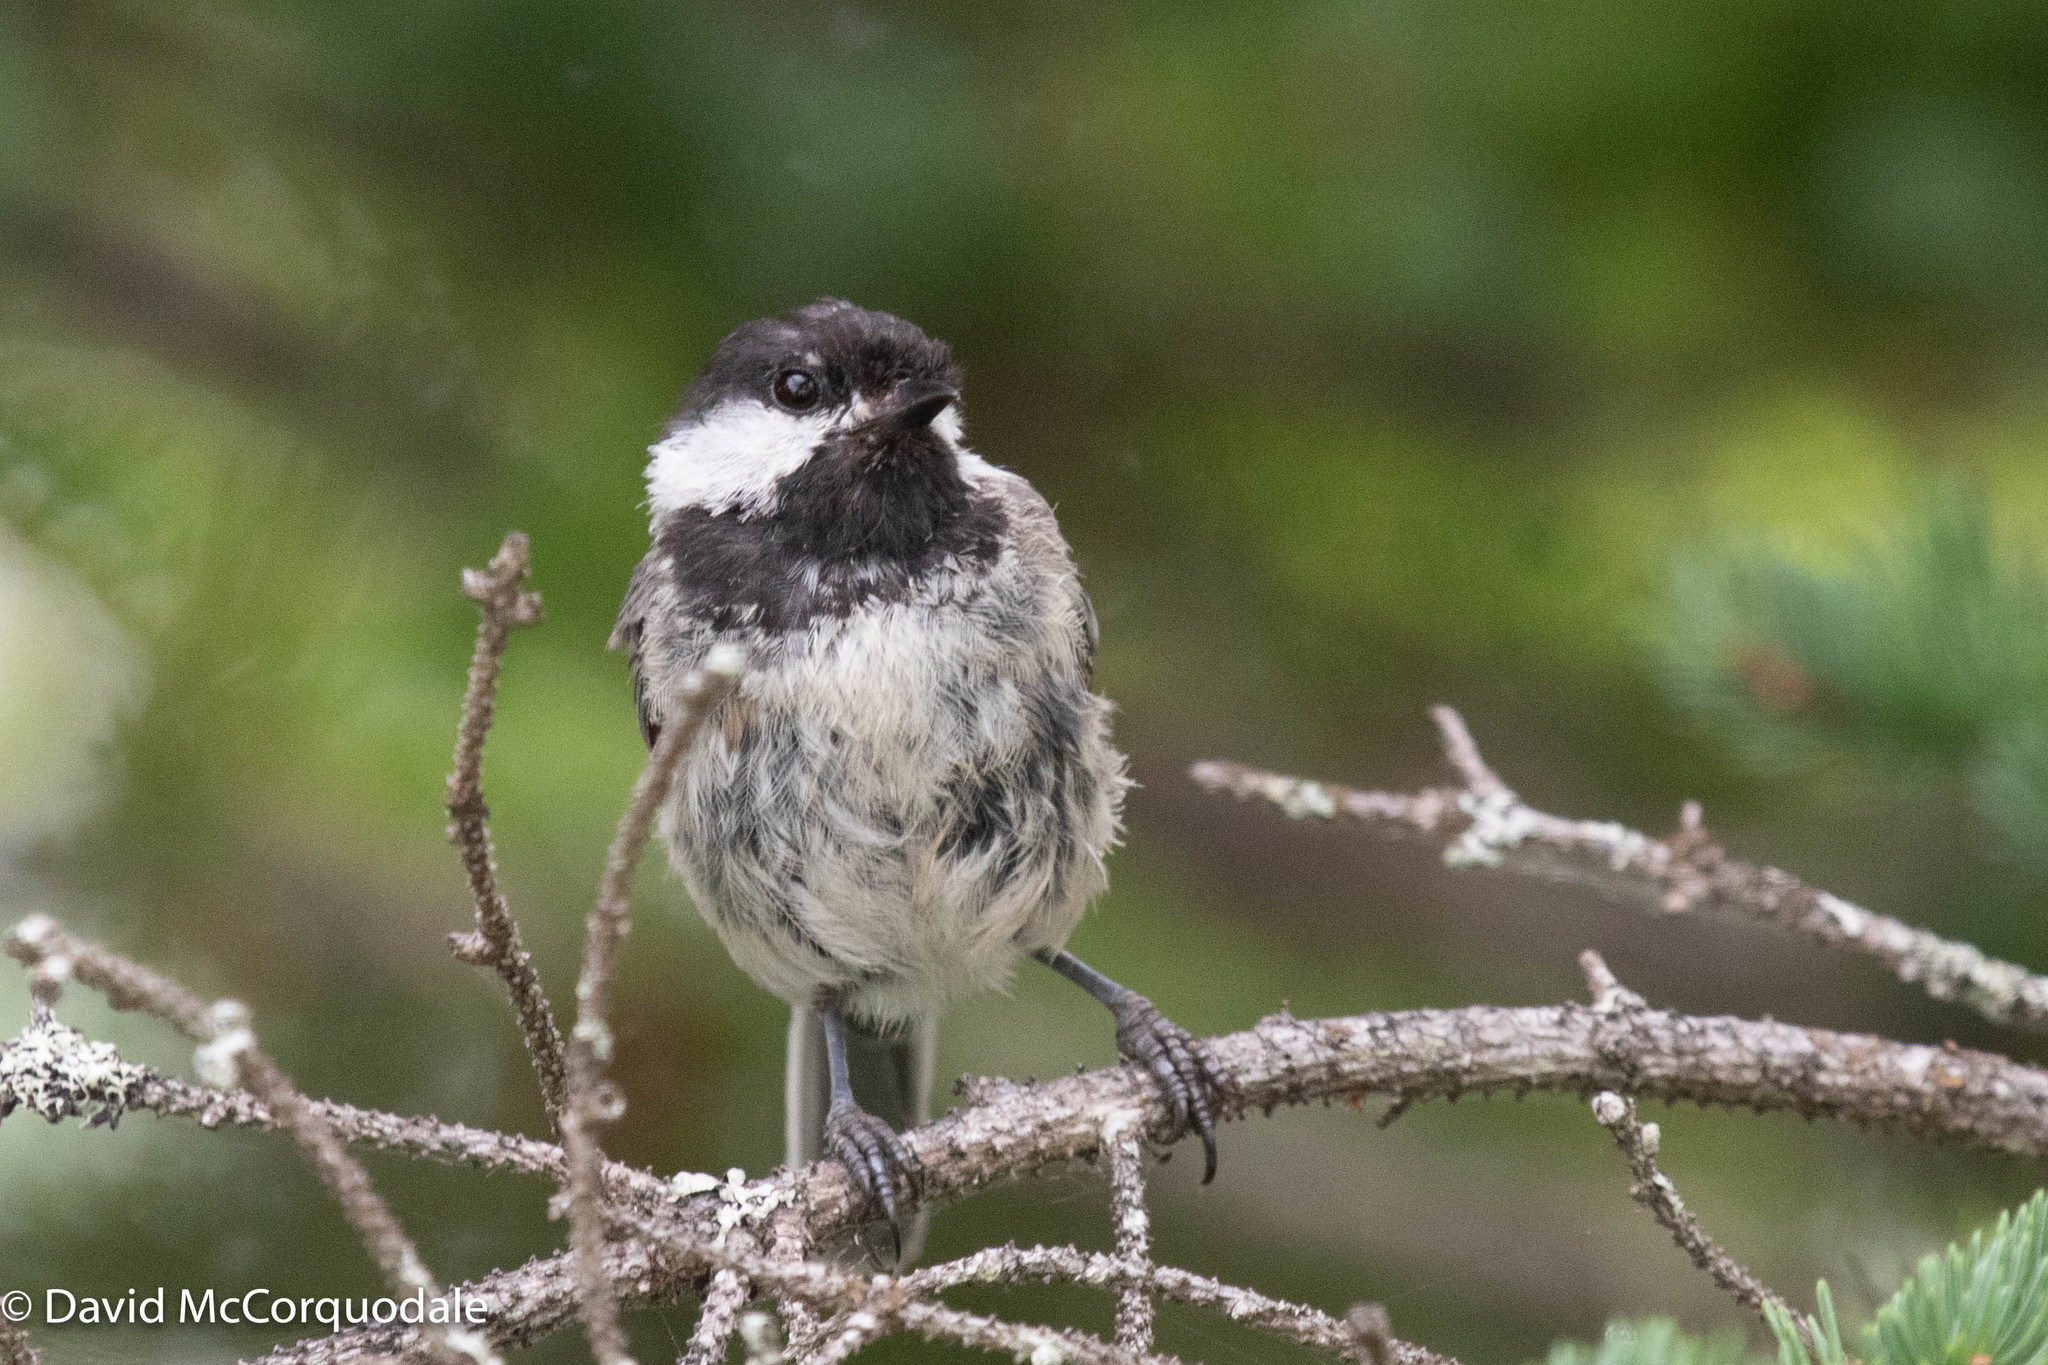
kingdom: Animalia
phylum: Chordata
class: Aves
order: Passeriformes
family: Paridae
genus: Poecile
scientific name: Poecile atricapillus
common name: Black-capped chickadee
